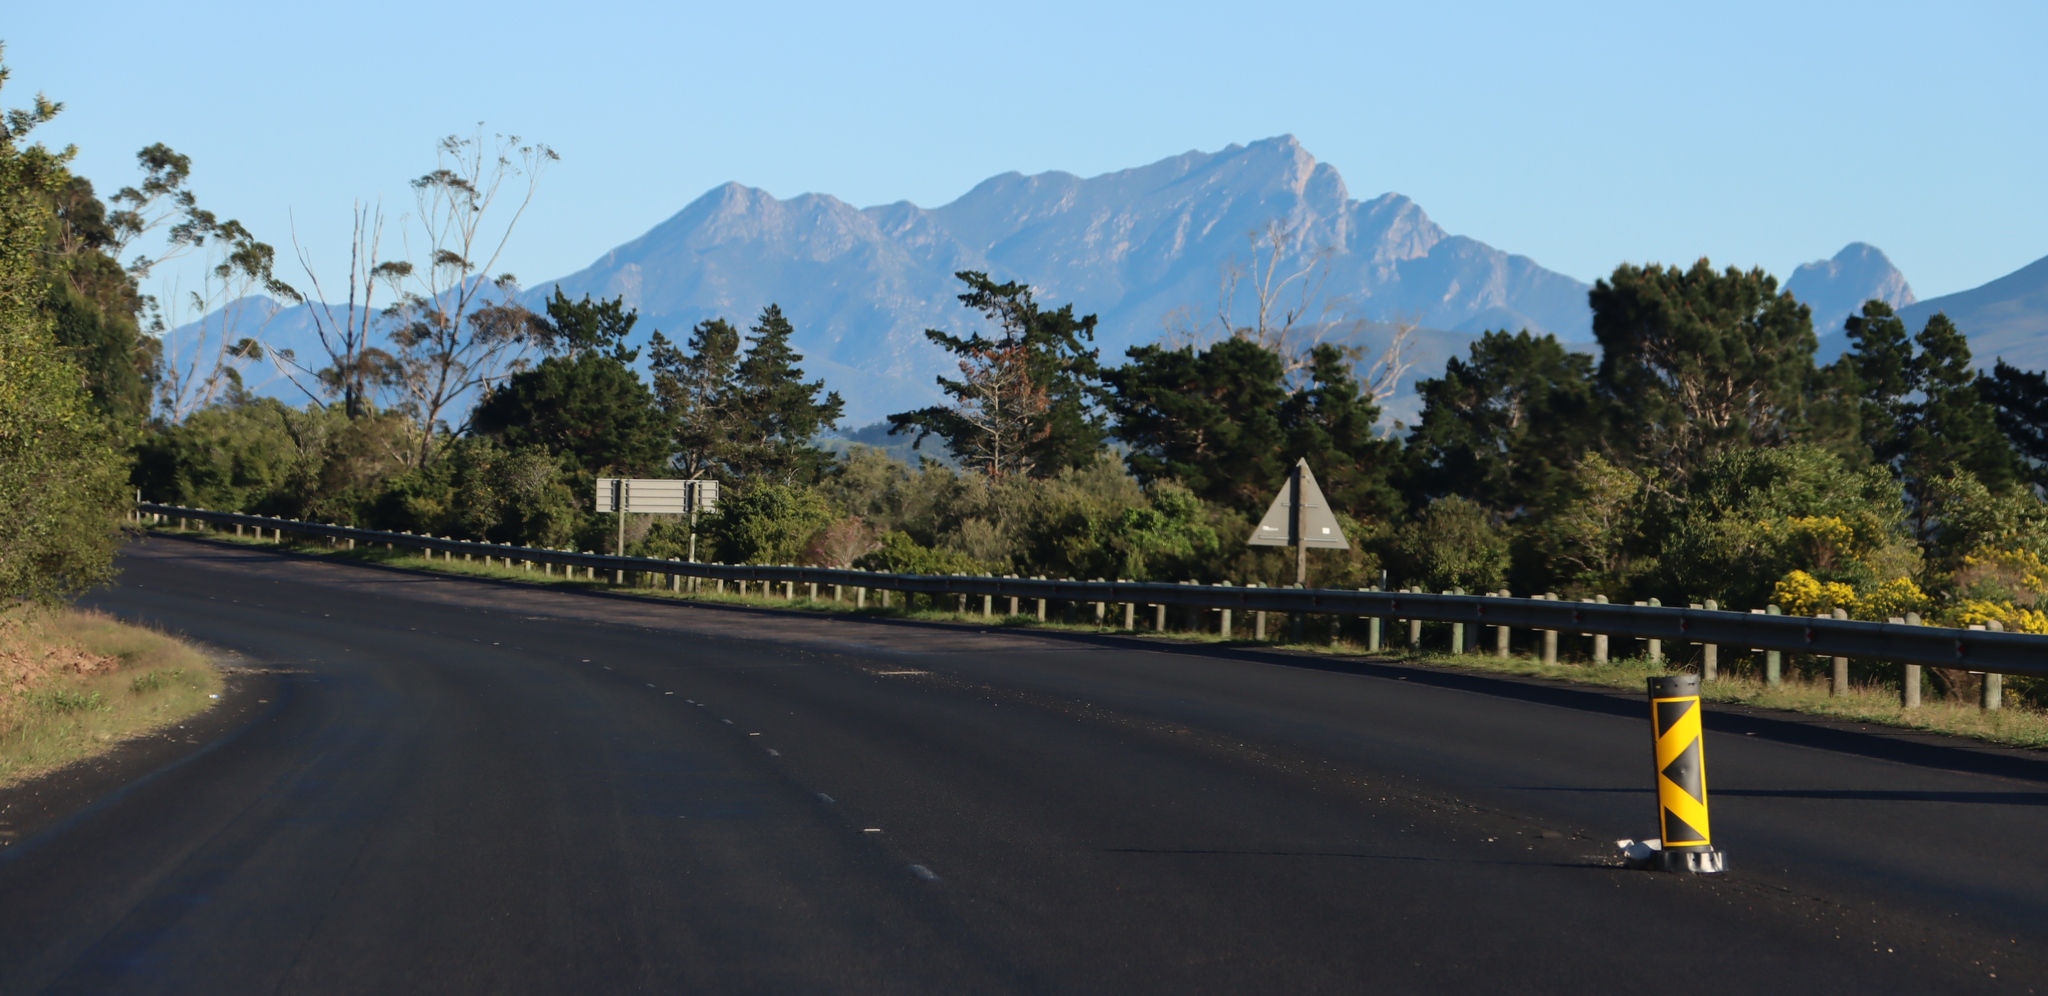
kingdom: Plantae
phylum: Tracheophyta
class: Pinopsida
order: Pinales
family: Pinaceae
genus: Pinus
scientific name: Pinus radiata
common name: Monterey pine
